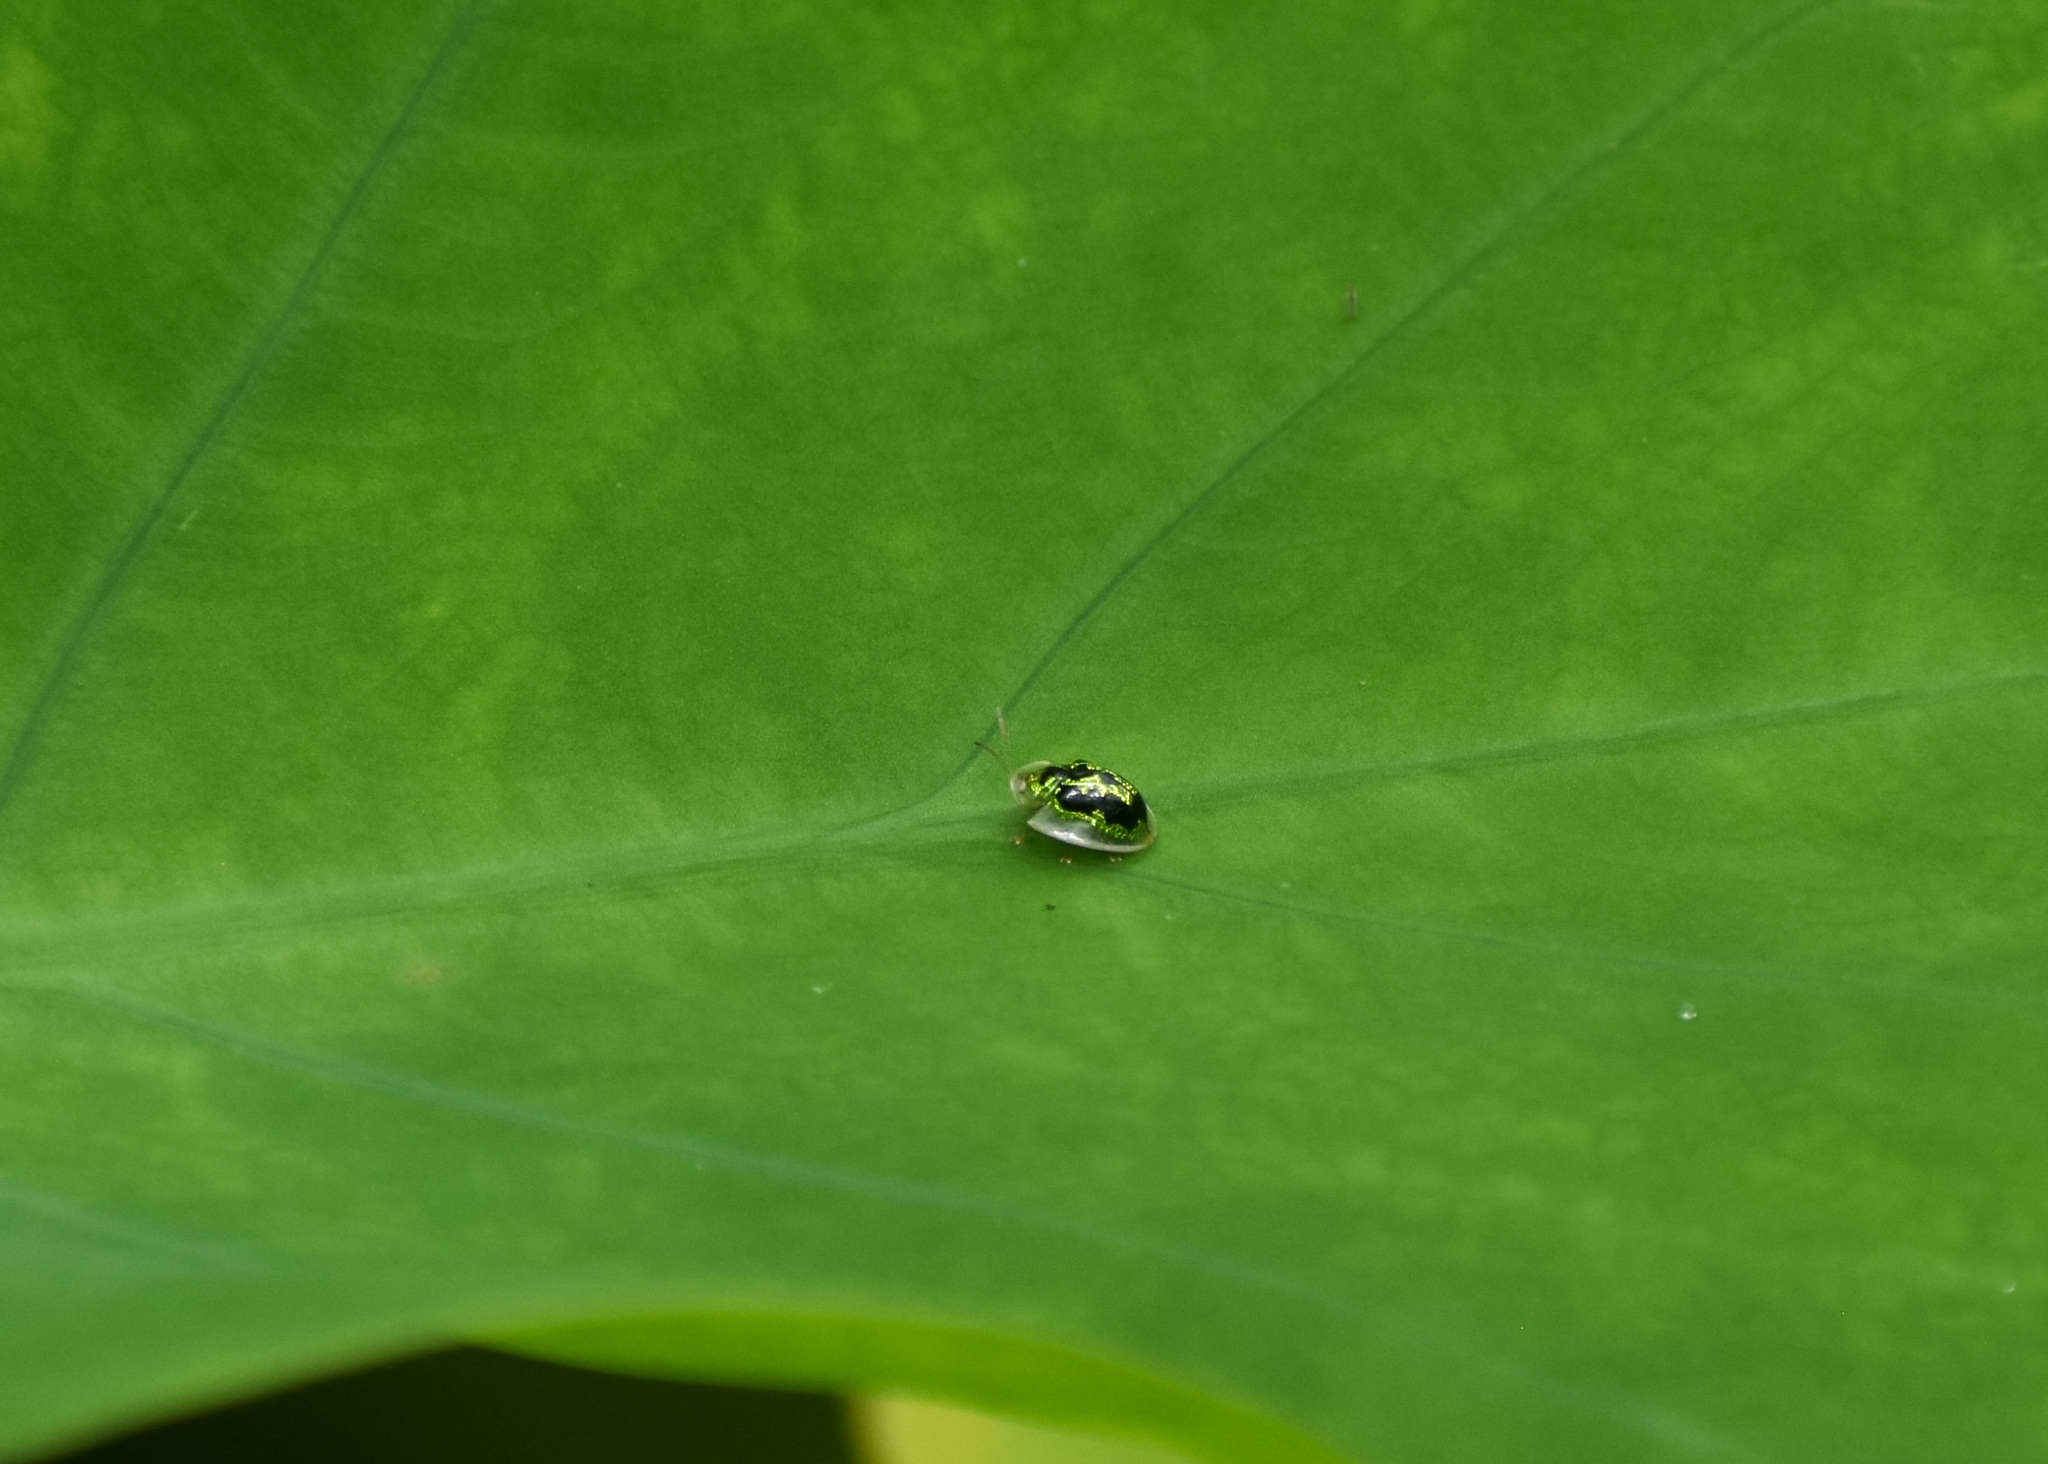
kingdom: Animalia
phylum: Arthropoda
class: Insecta
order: Coleoptera
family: Chrysomelidae
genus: Cassida
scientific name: Cassida circumdata
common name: Tortoise beetle
